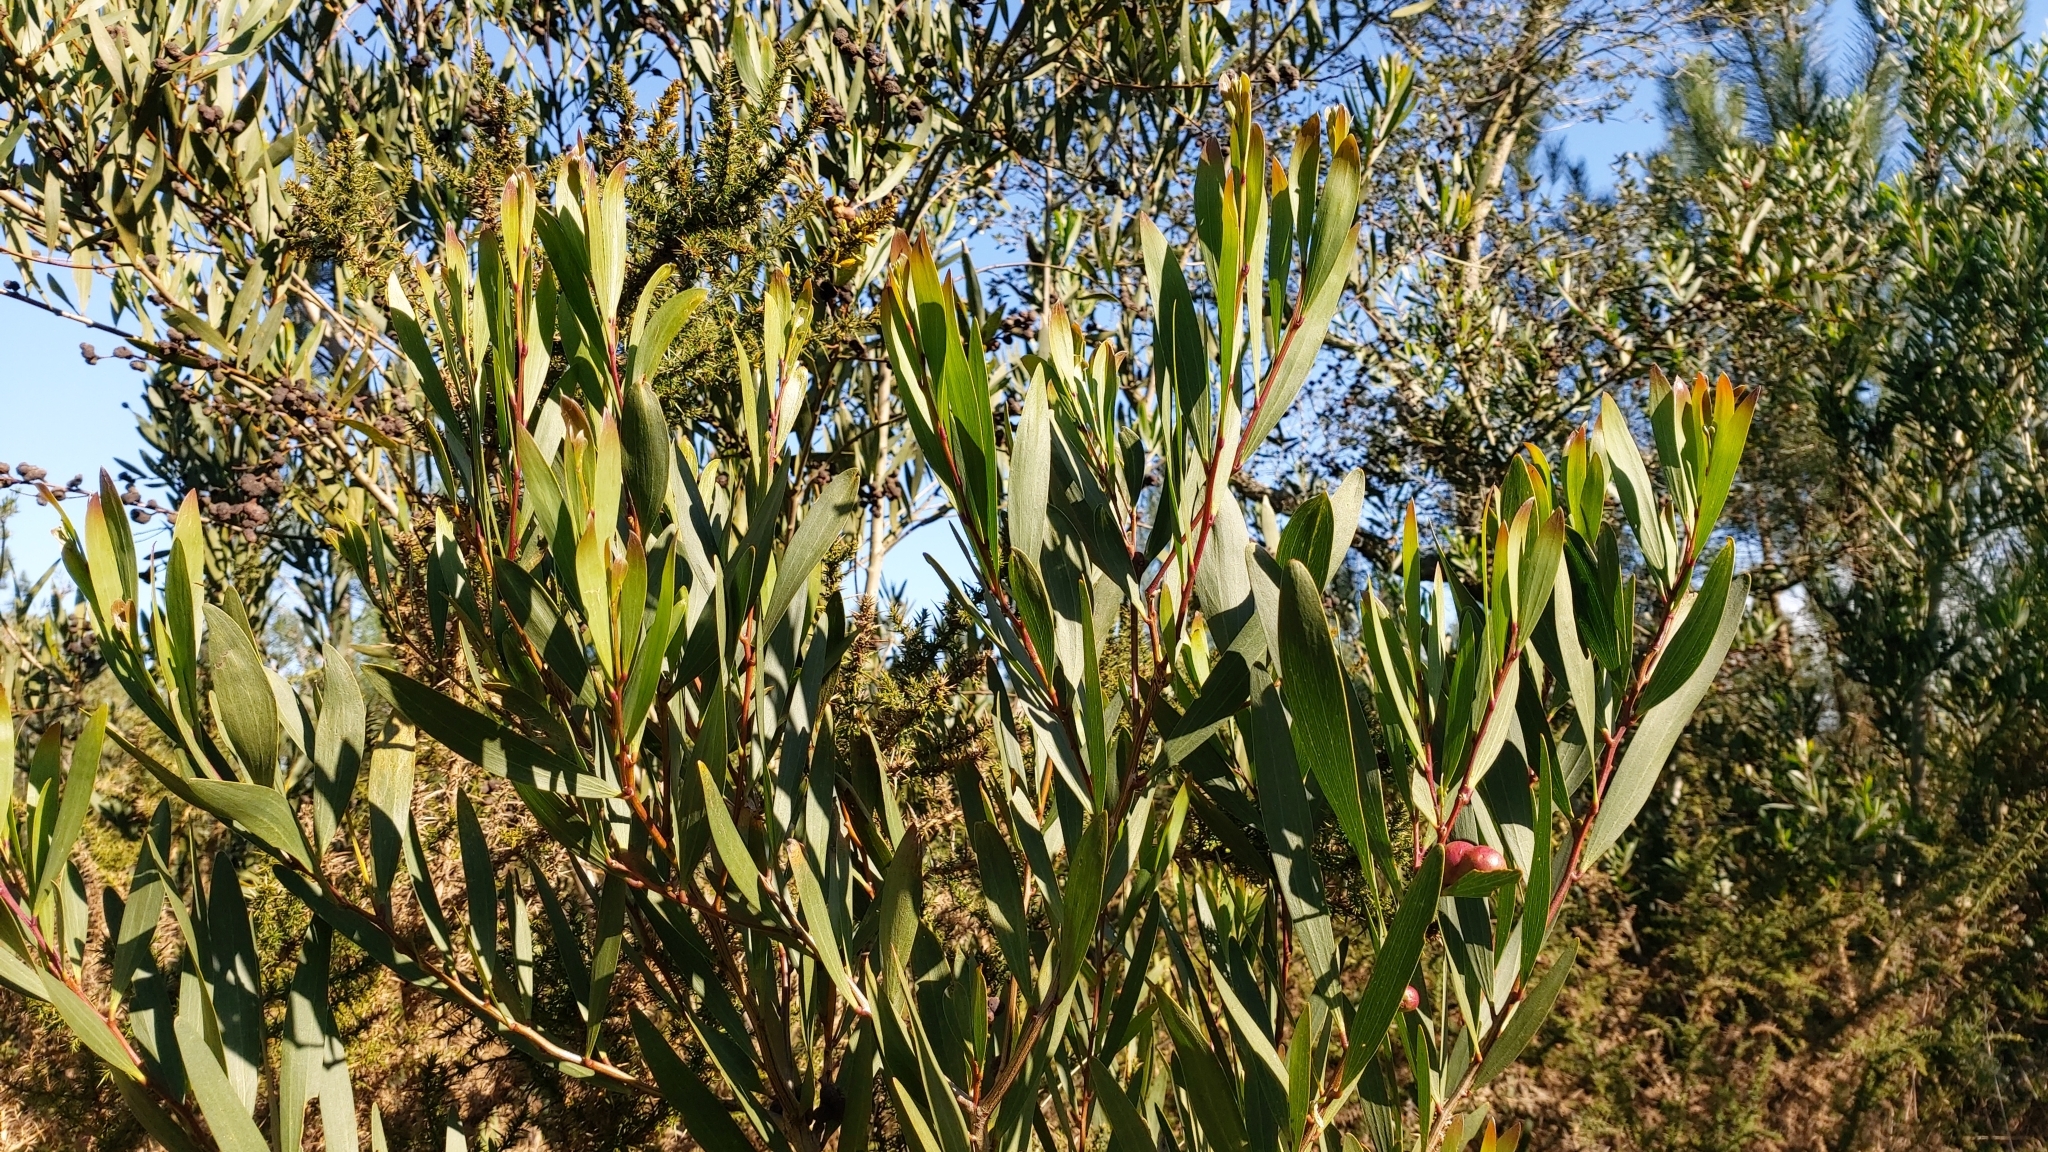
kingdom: Plantae
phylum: Tracheophyta
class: Magnoliopsida
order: Fabales
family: Fabaceae
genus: Acacia
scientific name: Acacia longifolia
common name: Sydney golden wattle
